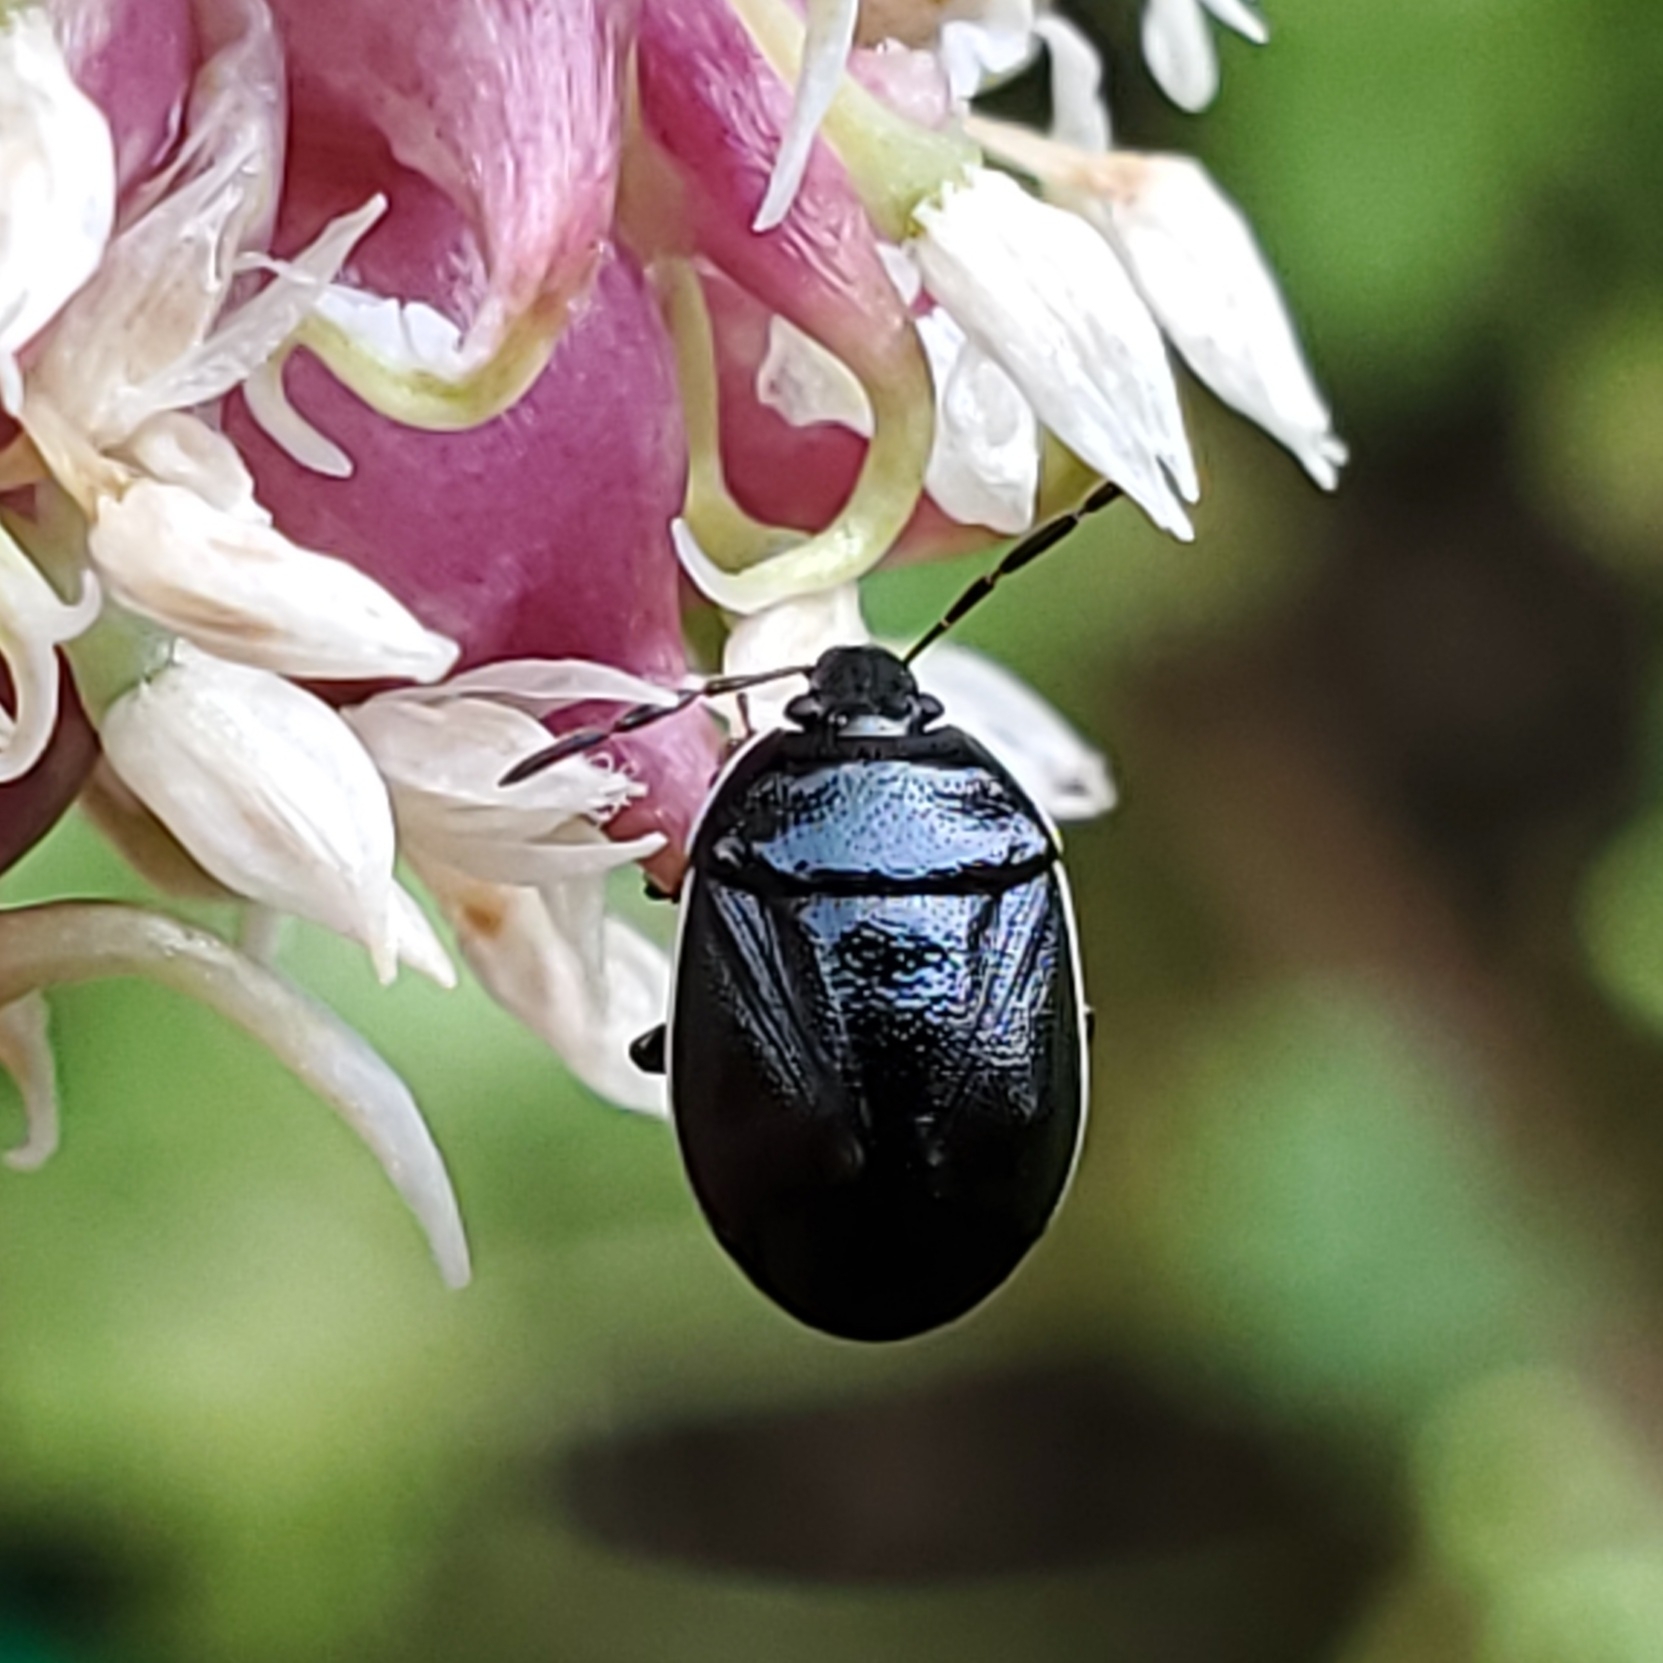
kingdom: Animalia
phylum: Arthropoda
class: Insecta
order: Hemiptera
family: Cydnidae
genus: Sehirus
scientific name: Sehirus cinctus
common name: White-margined burrower bug
